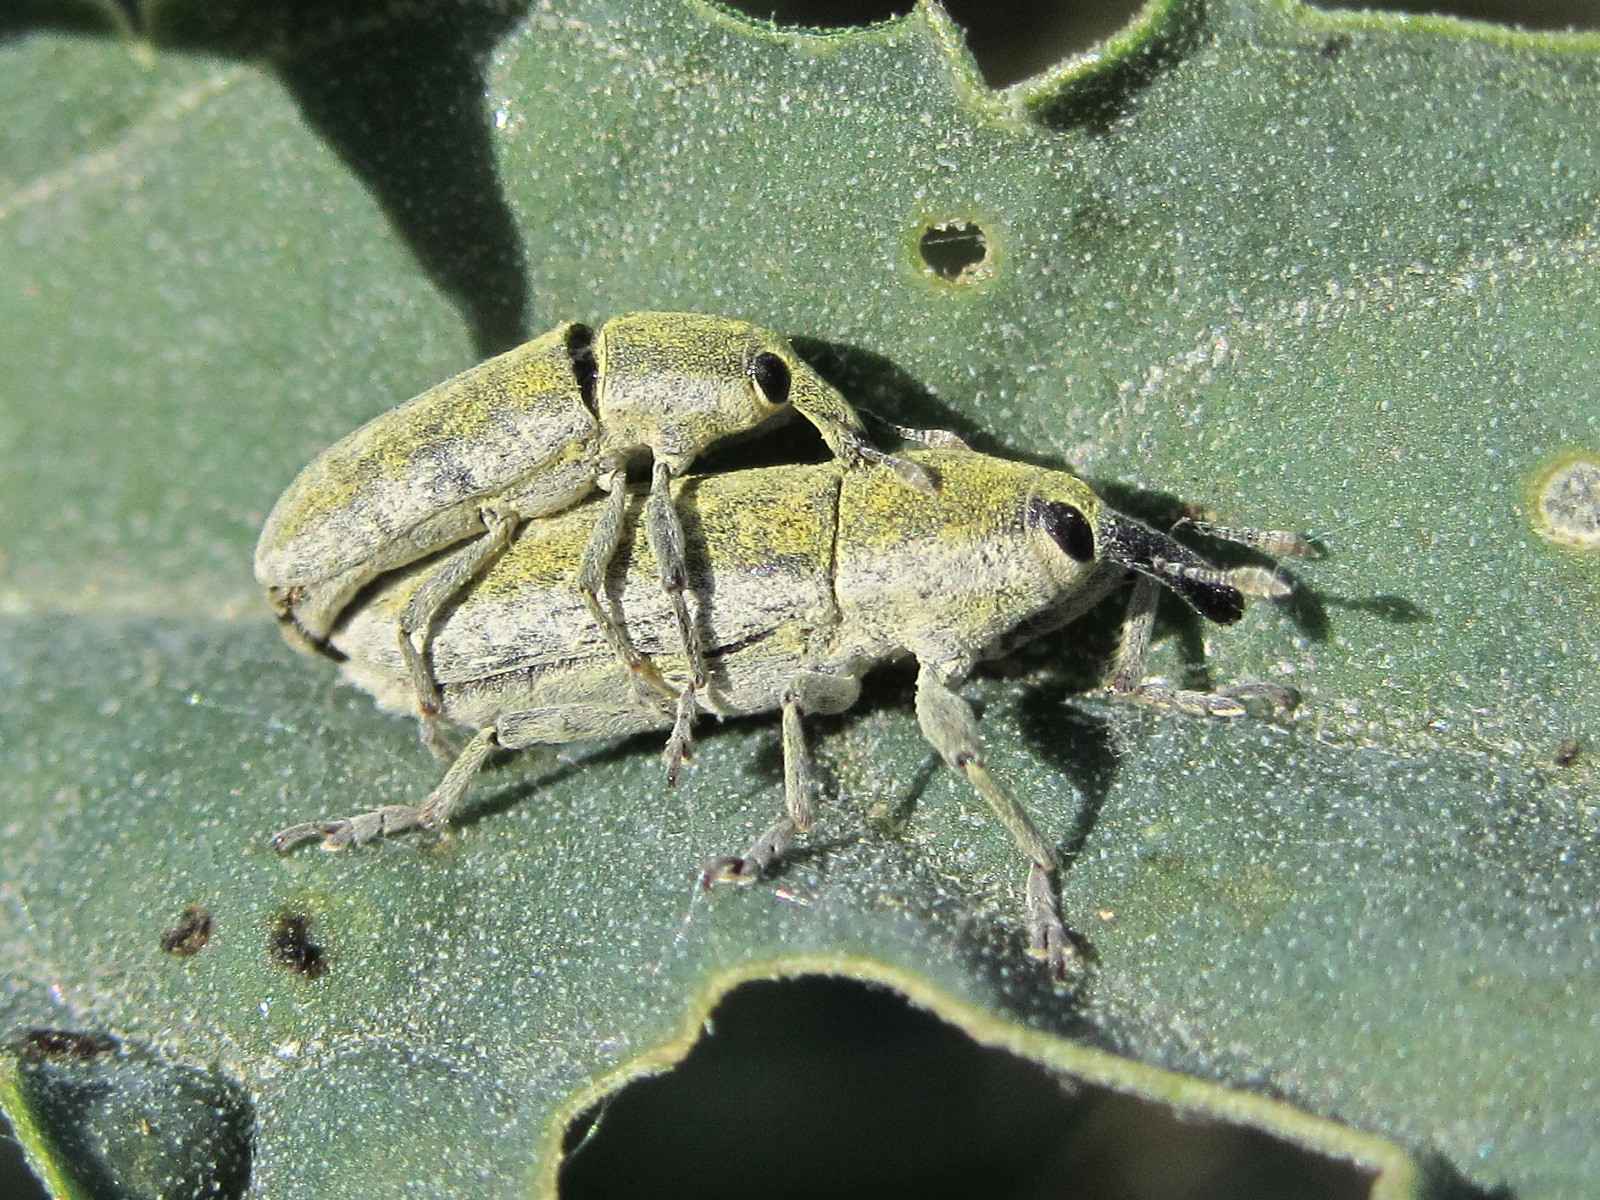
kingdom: Animalia
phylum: Arthropoda
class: Insecta
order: Coleoptera
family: Curculionidae
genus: Lixus
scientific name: Lixus rubicundus
